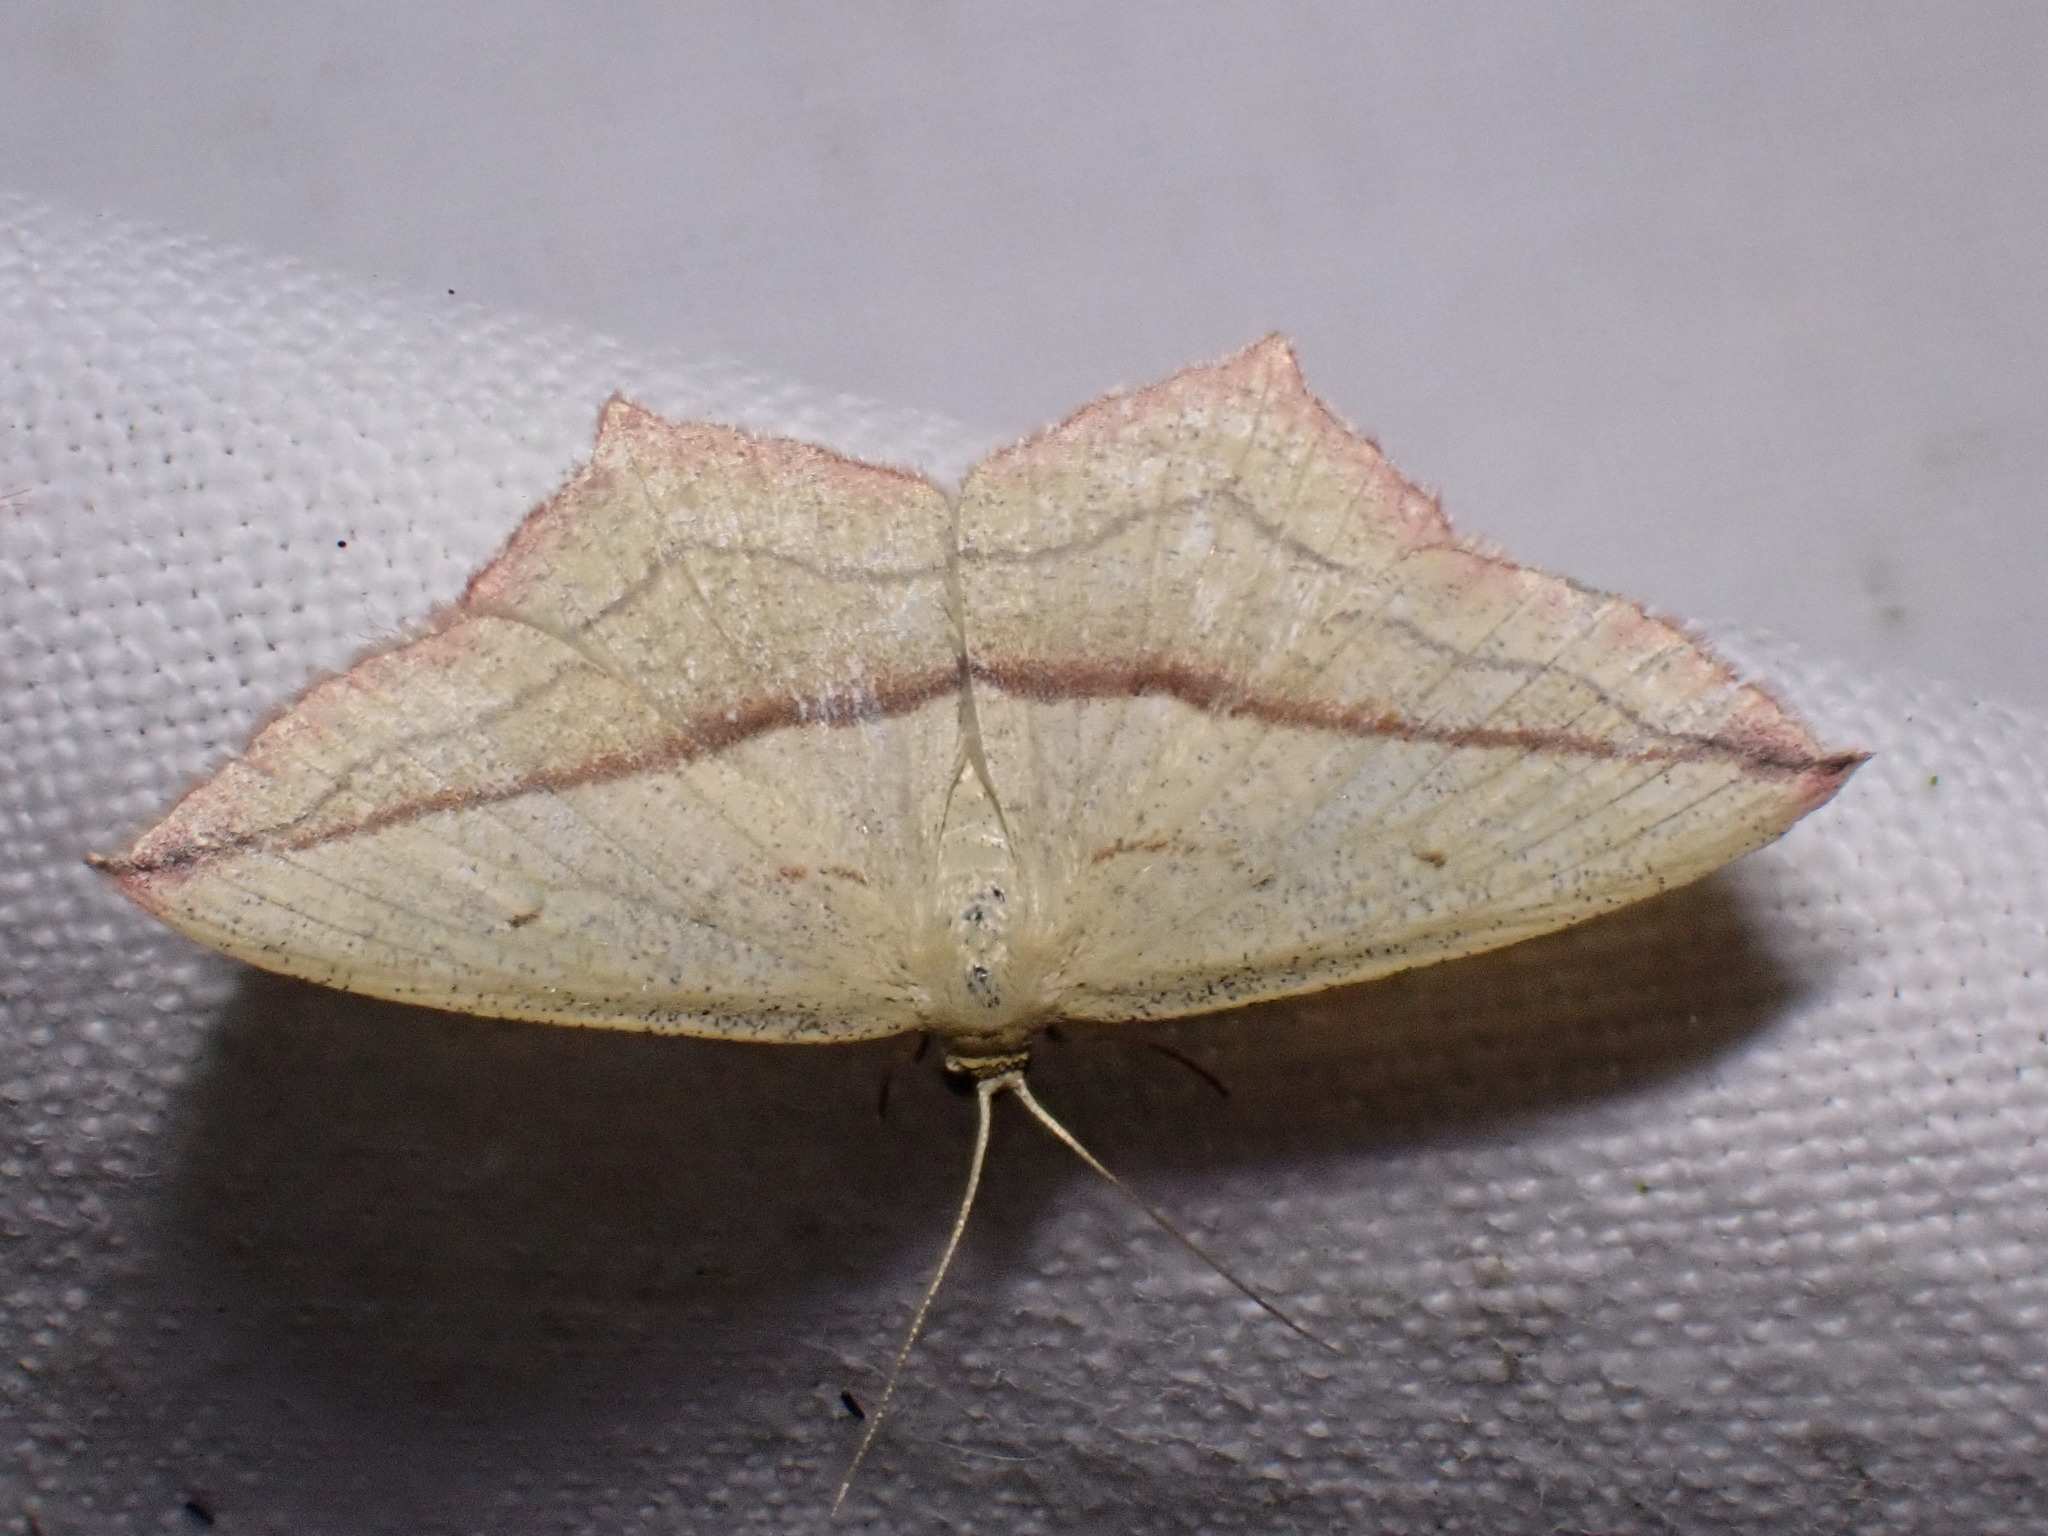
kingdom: Animalia
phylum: Arthropoda
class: Insecta
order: Lepidoptera
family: Geometridae
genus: Timandra
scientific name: Timandra comae
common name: Blood-vein
